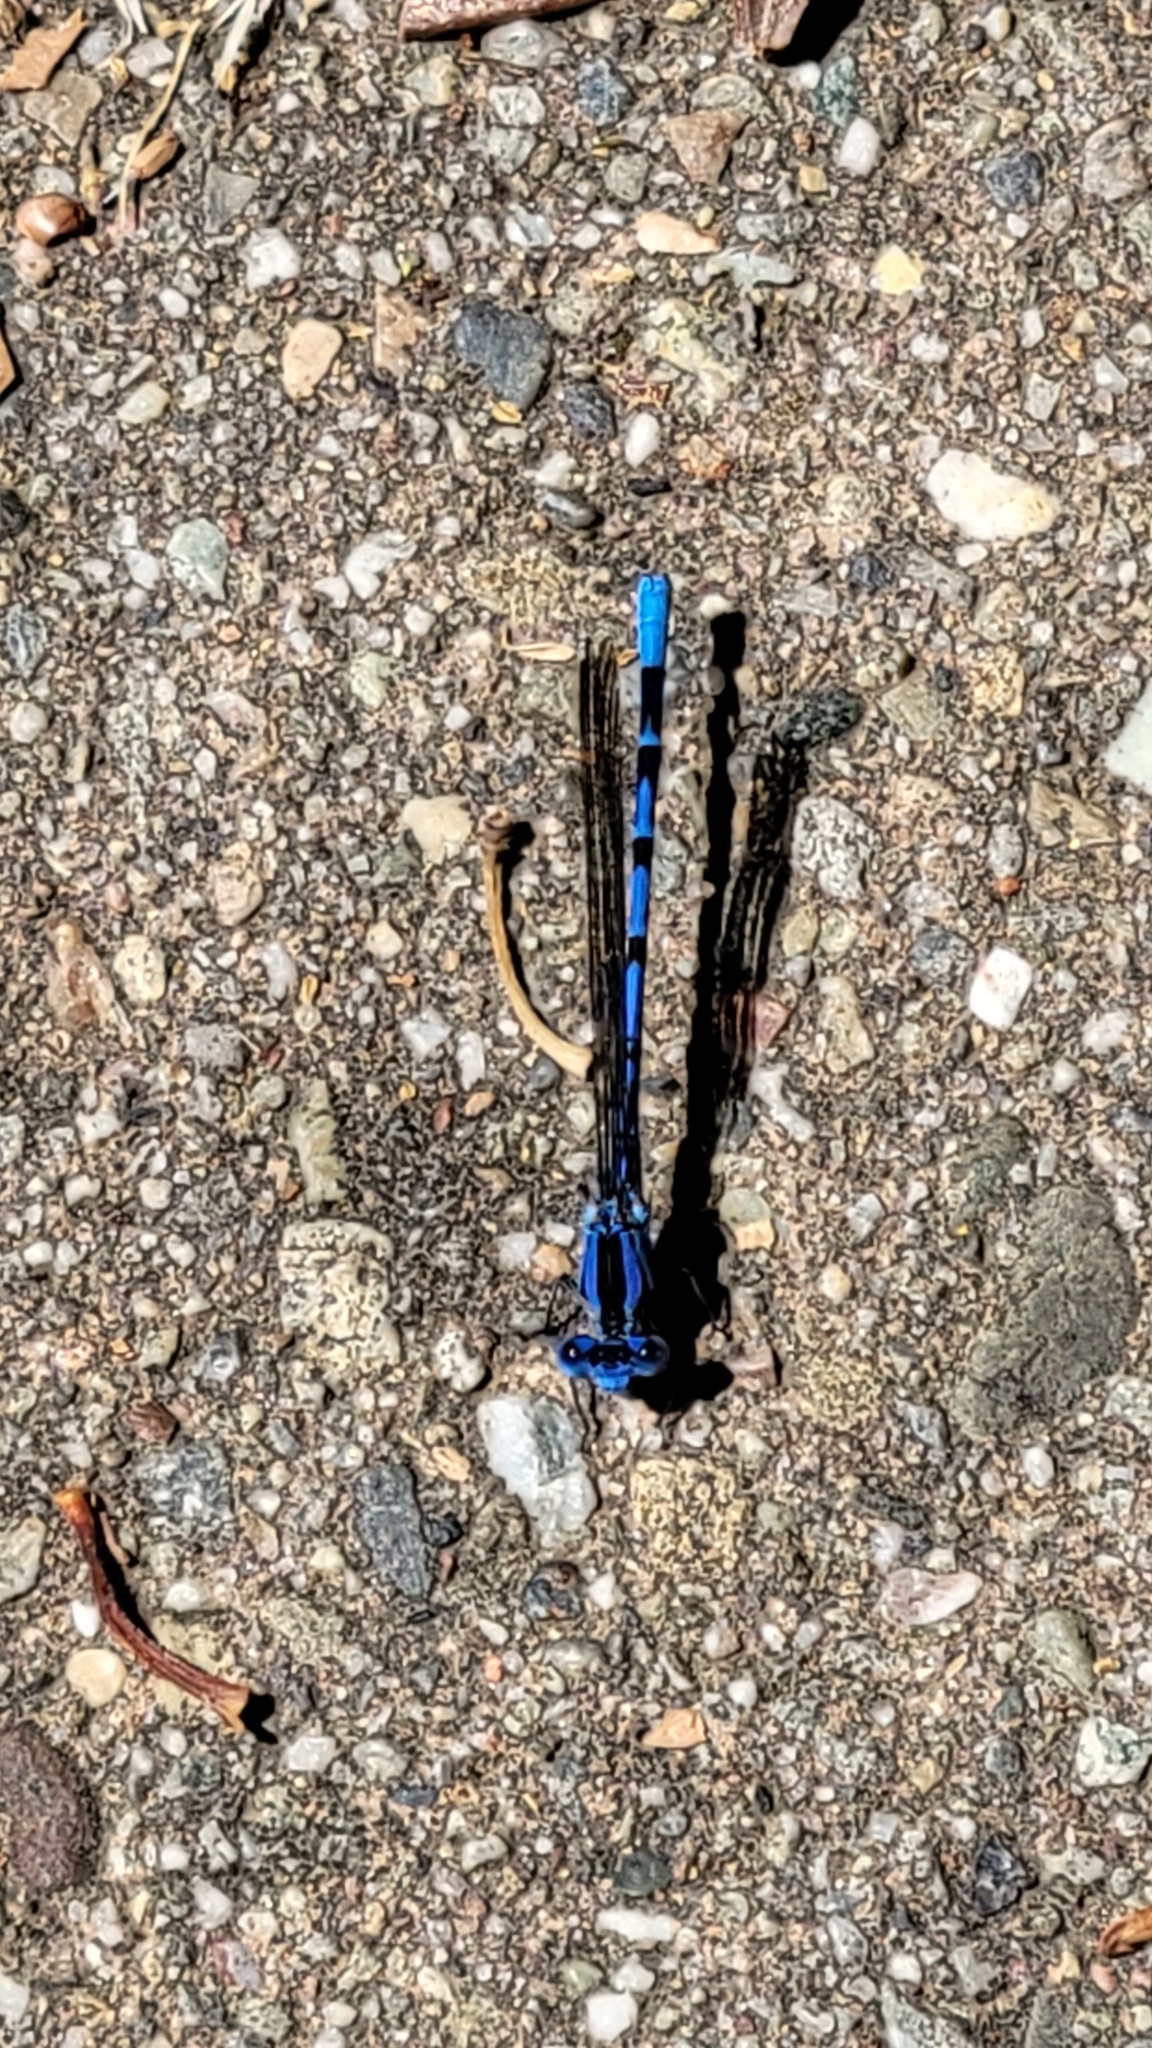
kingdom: Animalia
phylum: Arthropoda
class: Insecta
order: Odonata
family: Coenagrionidae
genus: Argia
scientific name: Argia vivida
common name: Vivid dancer
